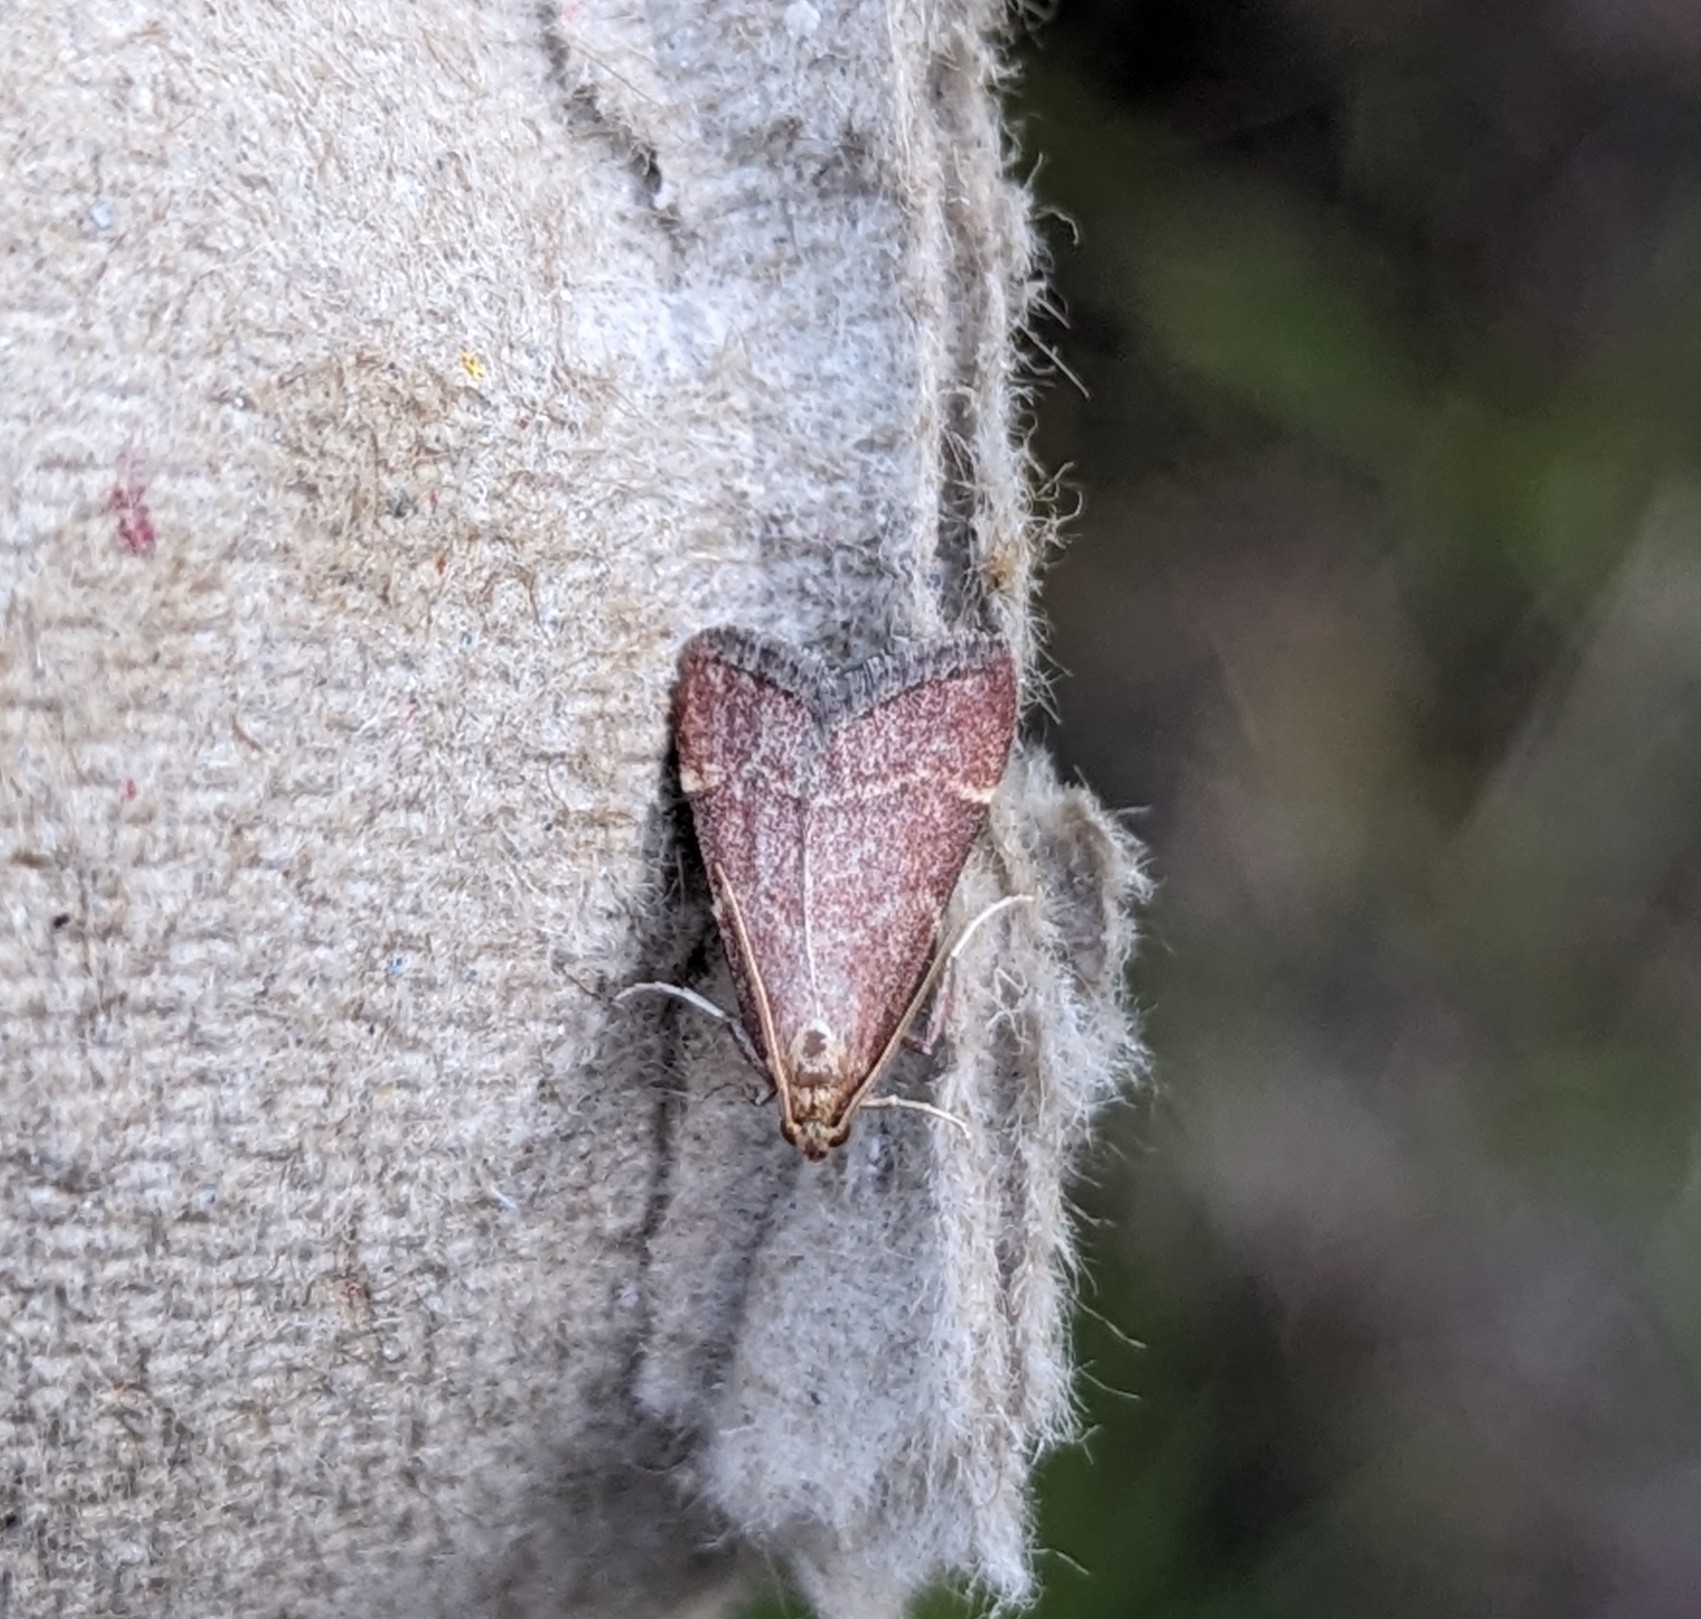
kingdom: Animalia
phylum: Arthropoda
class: Insecta
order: Lepidoptera
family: Pyralidae
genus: Arta
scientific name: Arta epicoenalis
